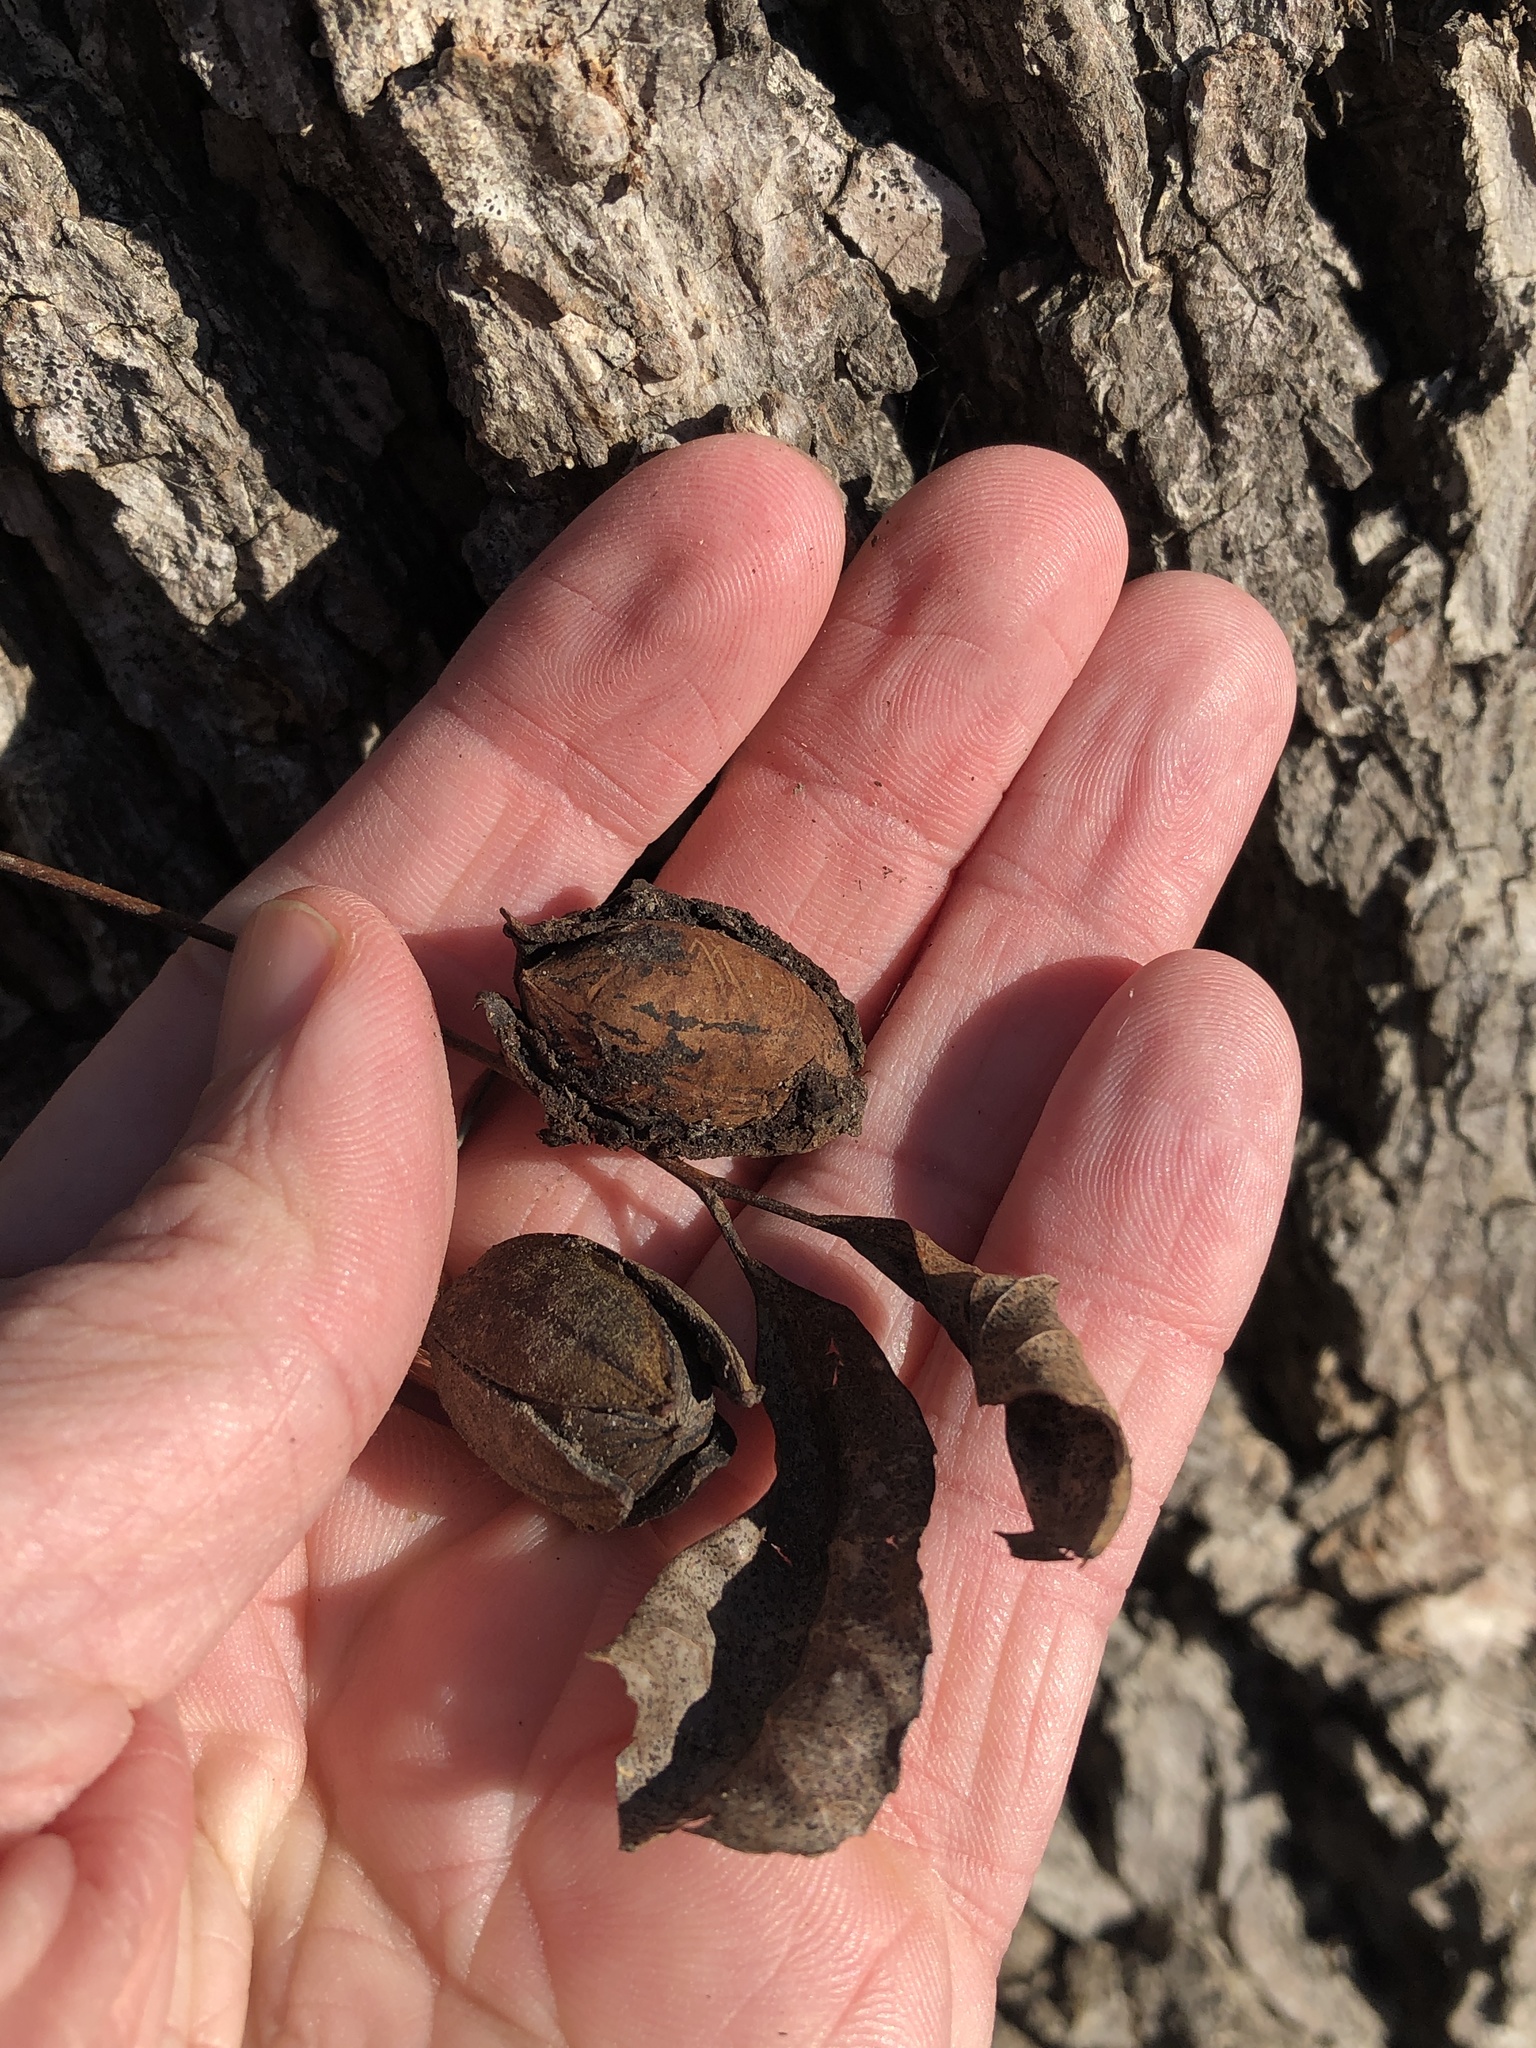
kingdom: Plantae
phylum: Tracheophyta
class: Magnoliopsida
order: Fagales
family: Juglandaceae
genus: Carya
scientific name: Carya illinoinensis
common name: Pecan
